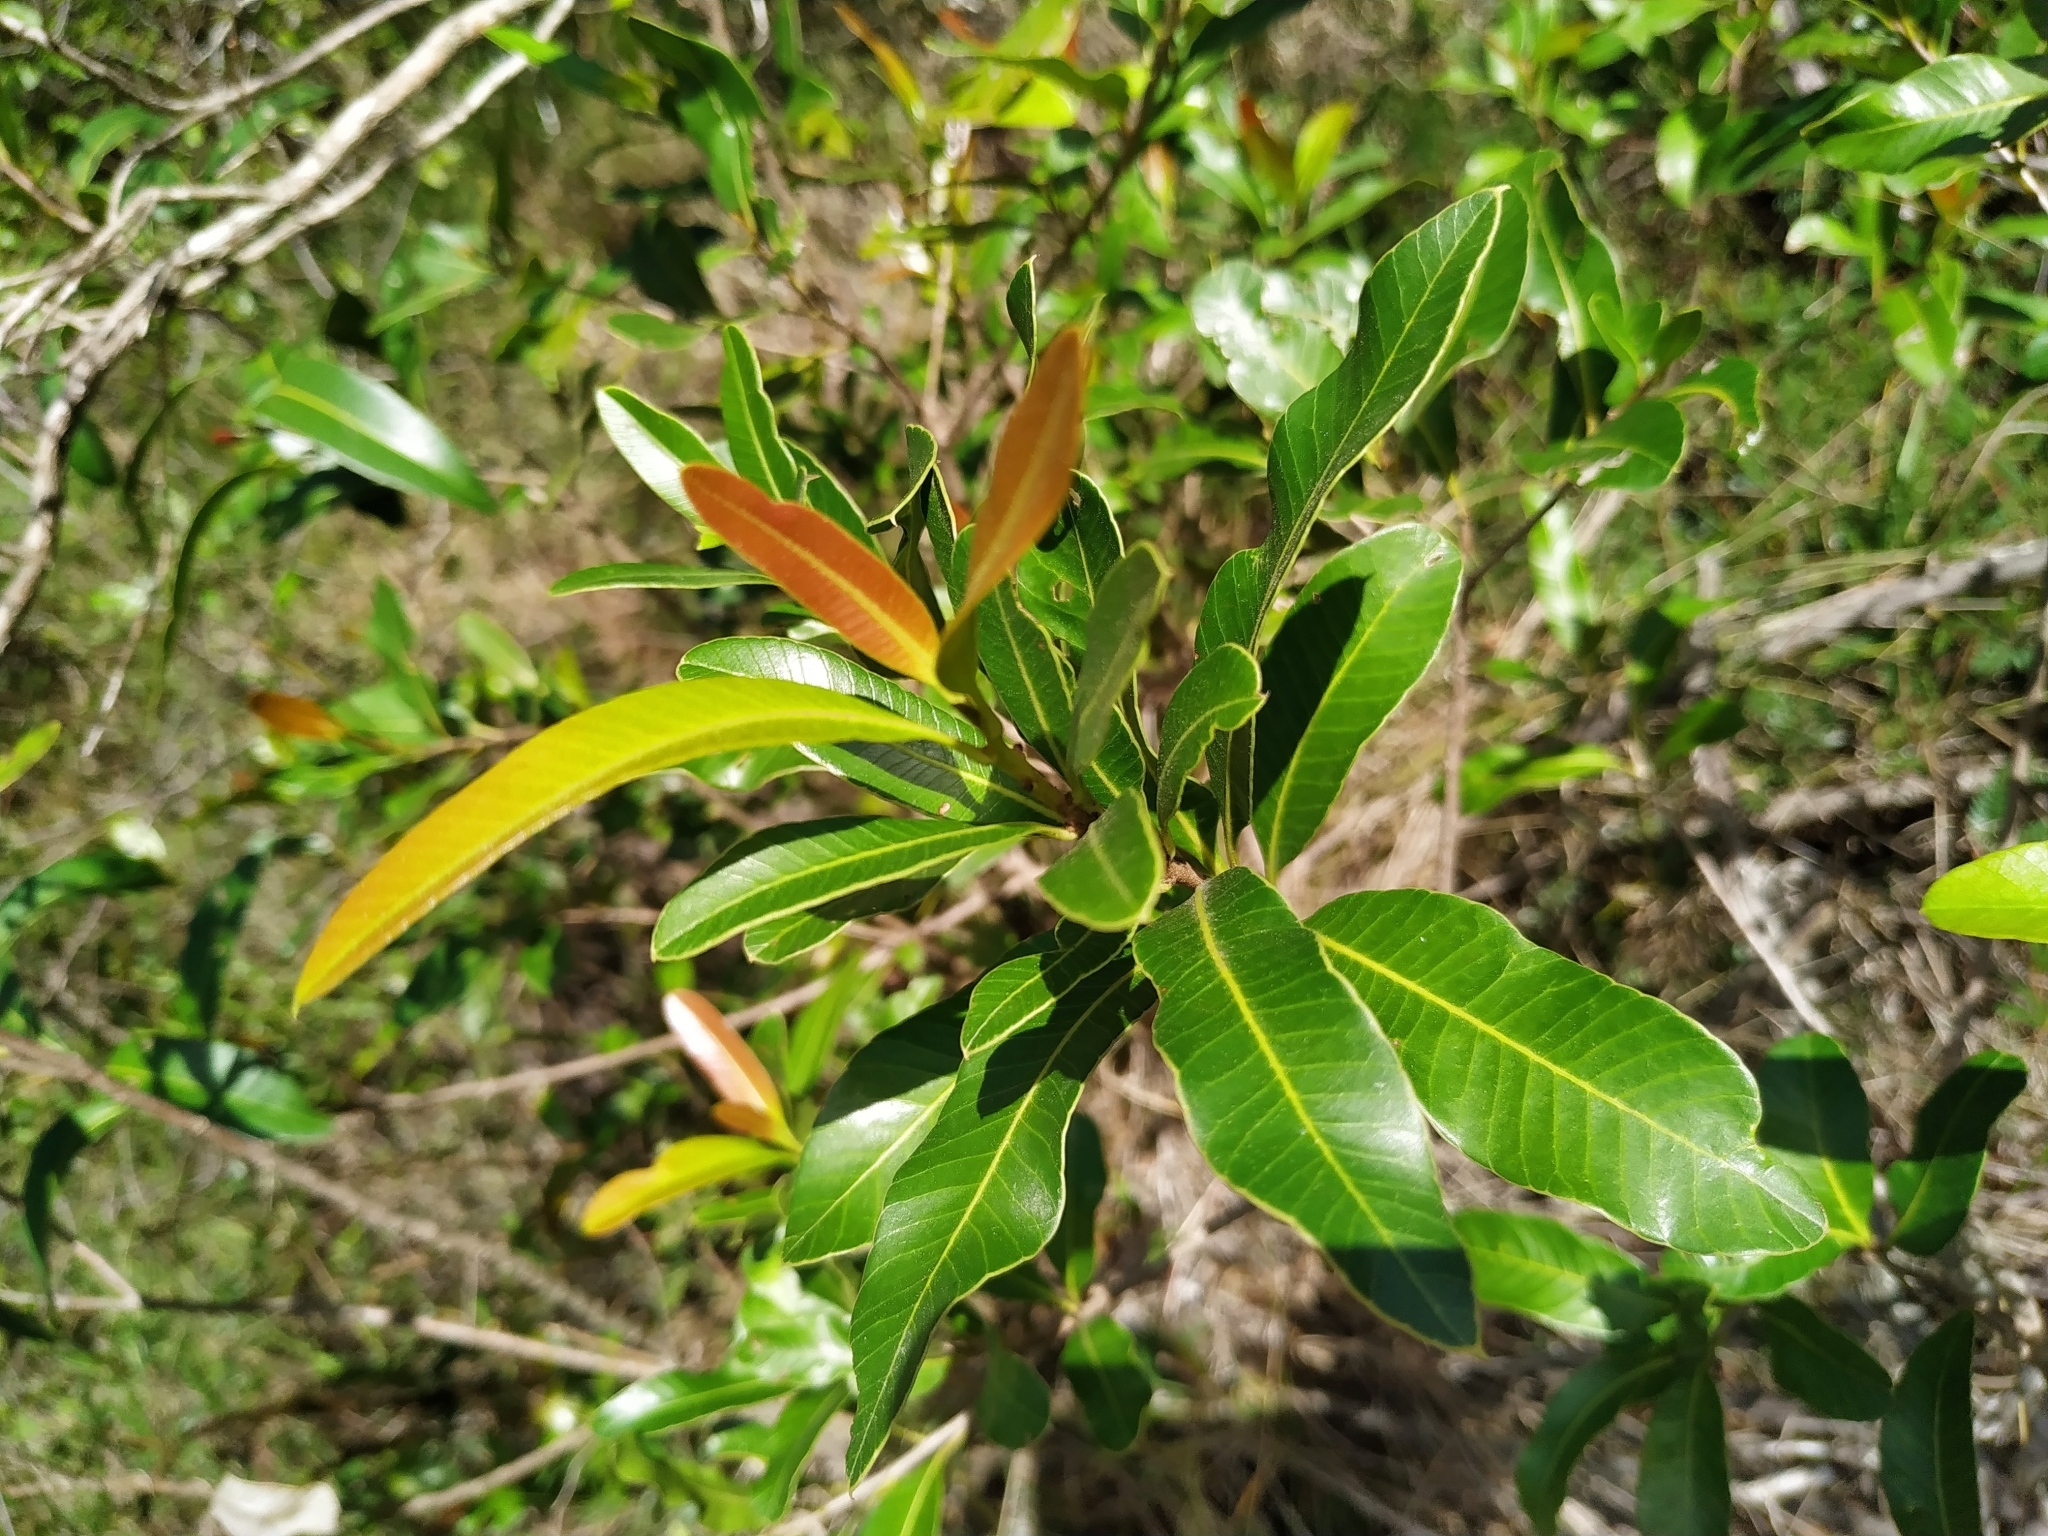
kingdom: Plantae
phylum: Tracheophyta
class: Magnoliopsida
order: Sapindales
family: Anacardiaceae
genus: Lithraea
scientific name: Lithraea brasiliensis
